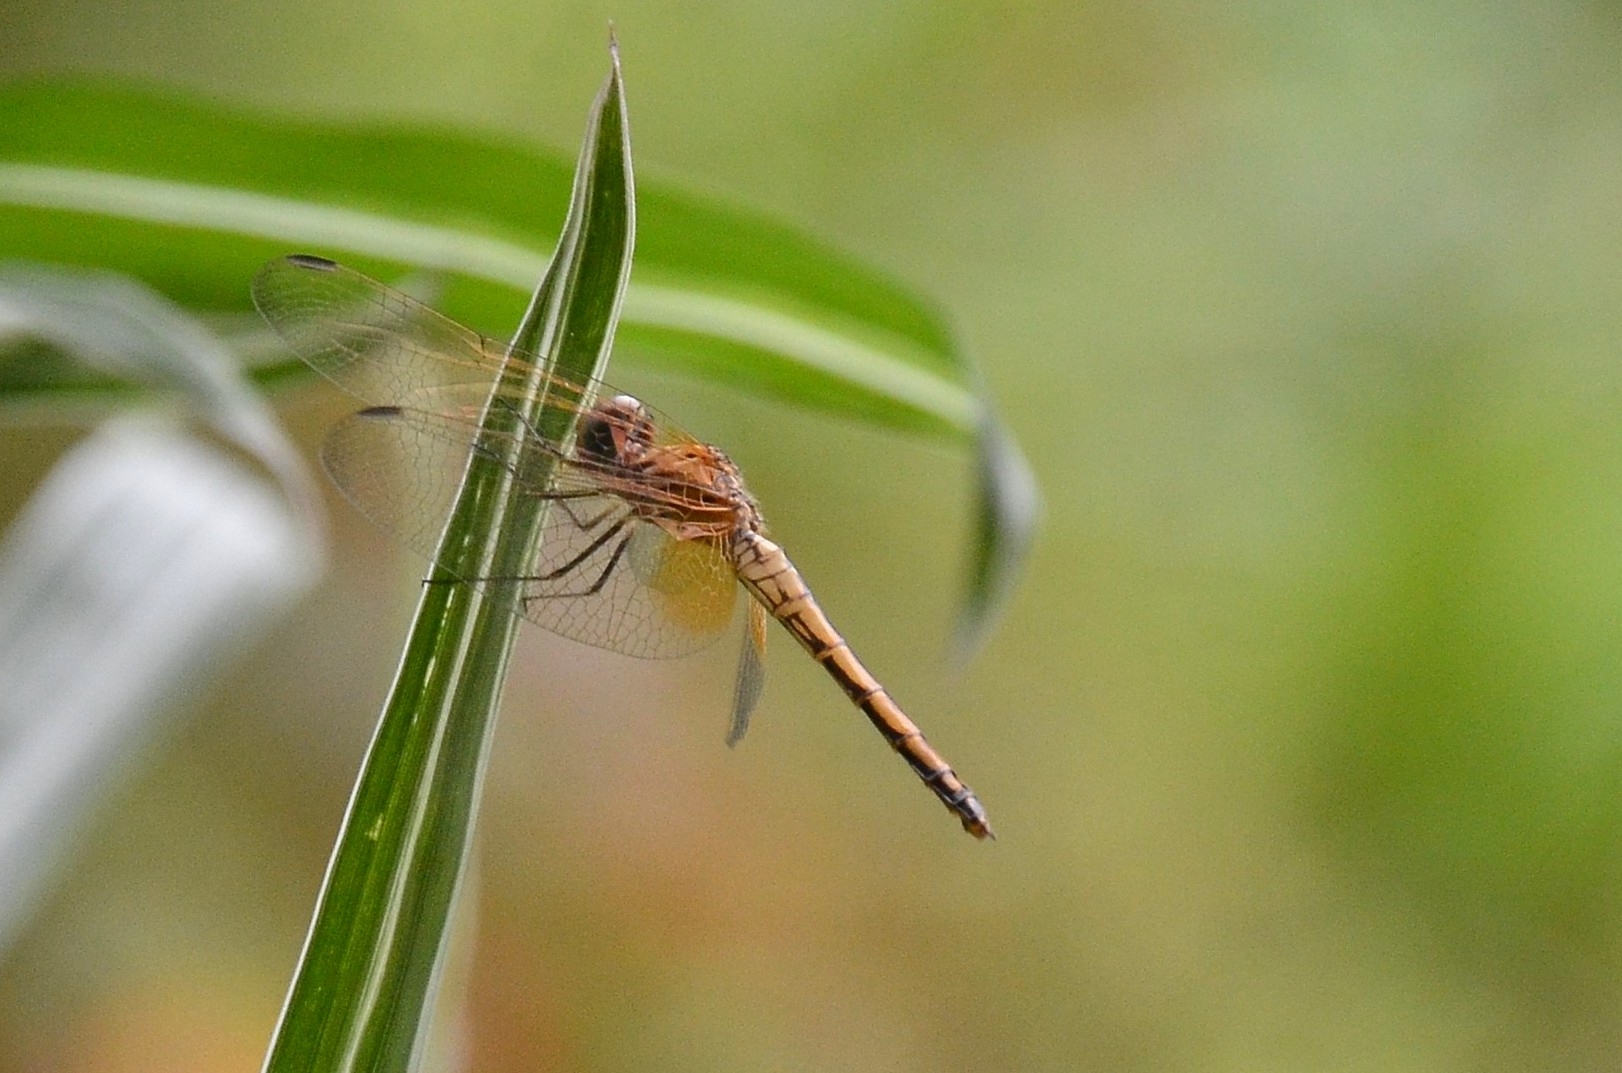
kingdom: Animalia
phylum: Arthropoda
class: Insecta
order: Odonata
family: Libellulidae
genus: Trithemis
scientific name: Trithemis aurora
